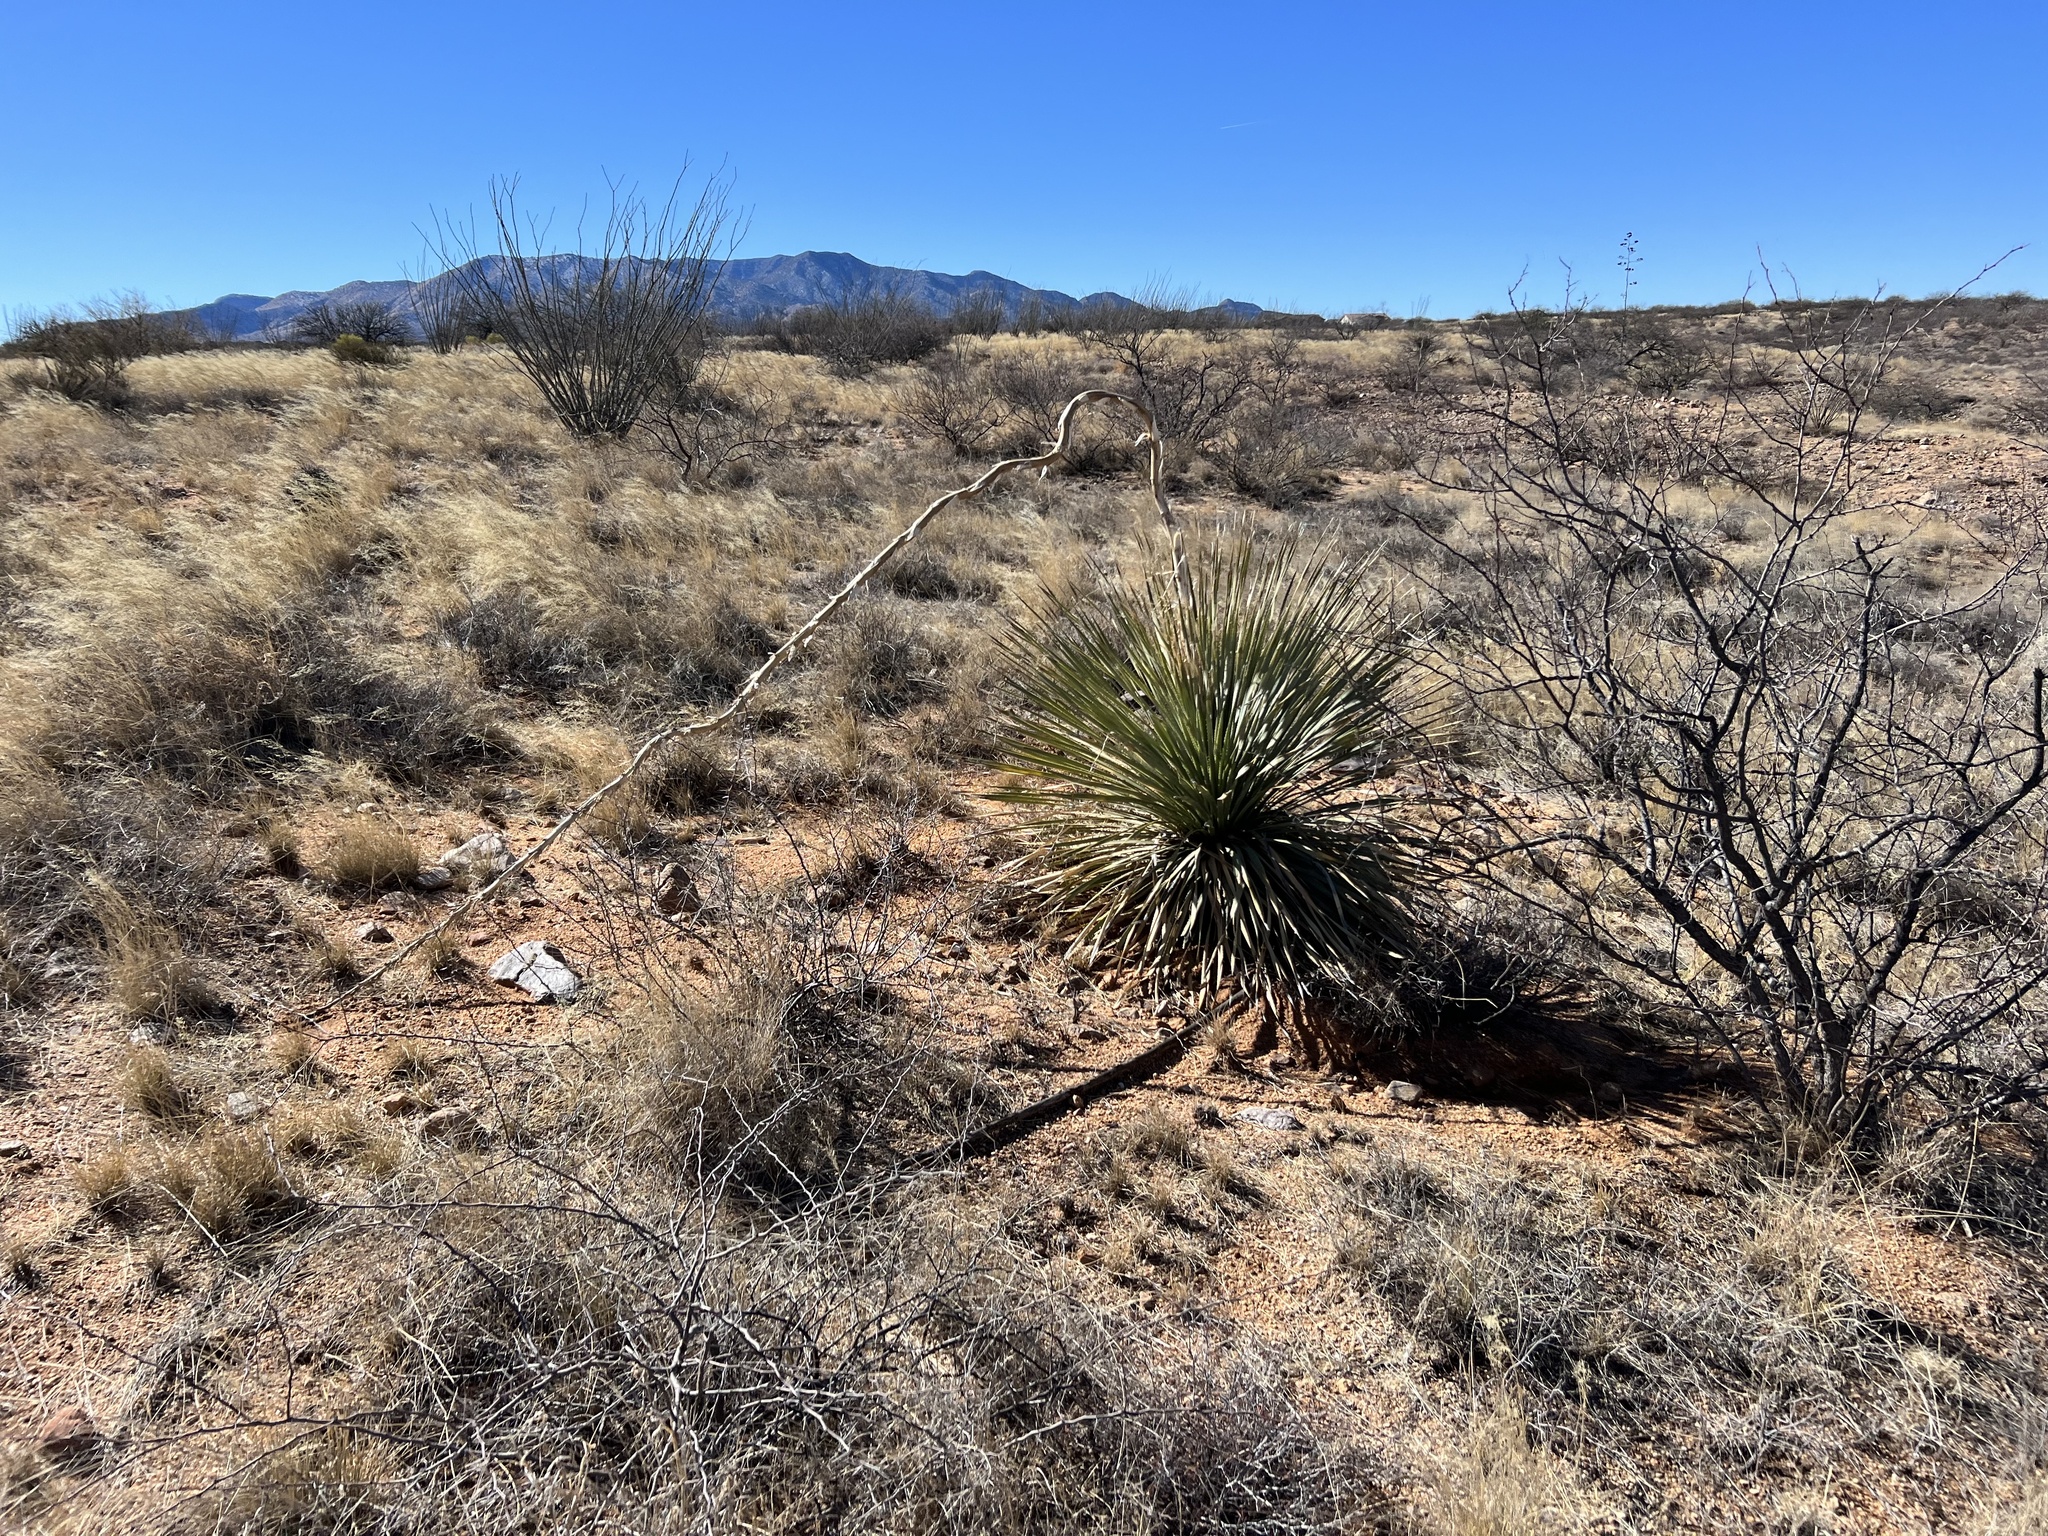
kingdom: Plantae
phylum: Tracheophyta
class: Liliopsida
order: Asparagales
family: Asparagaceae
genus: Dasylirion
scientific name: Dasylirion wheeleri
